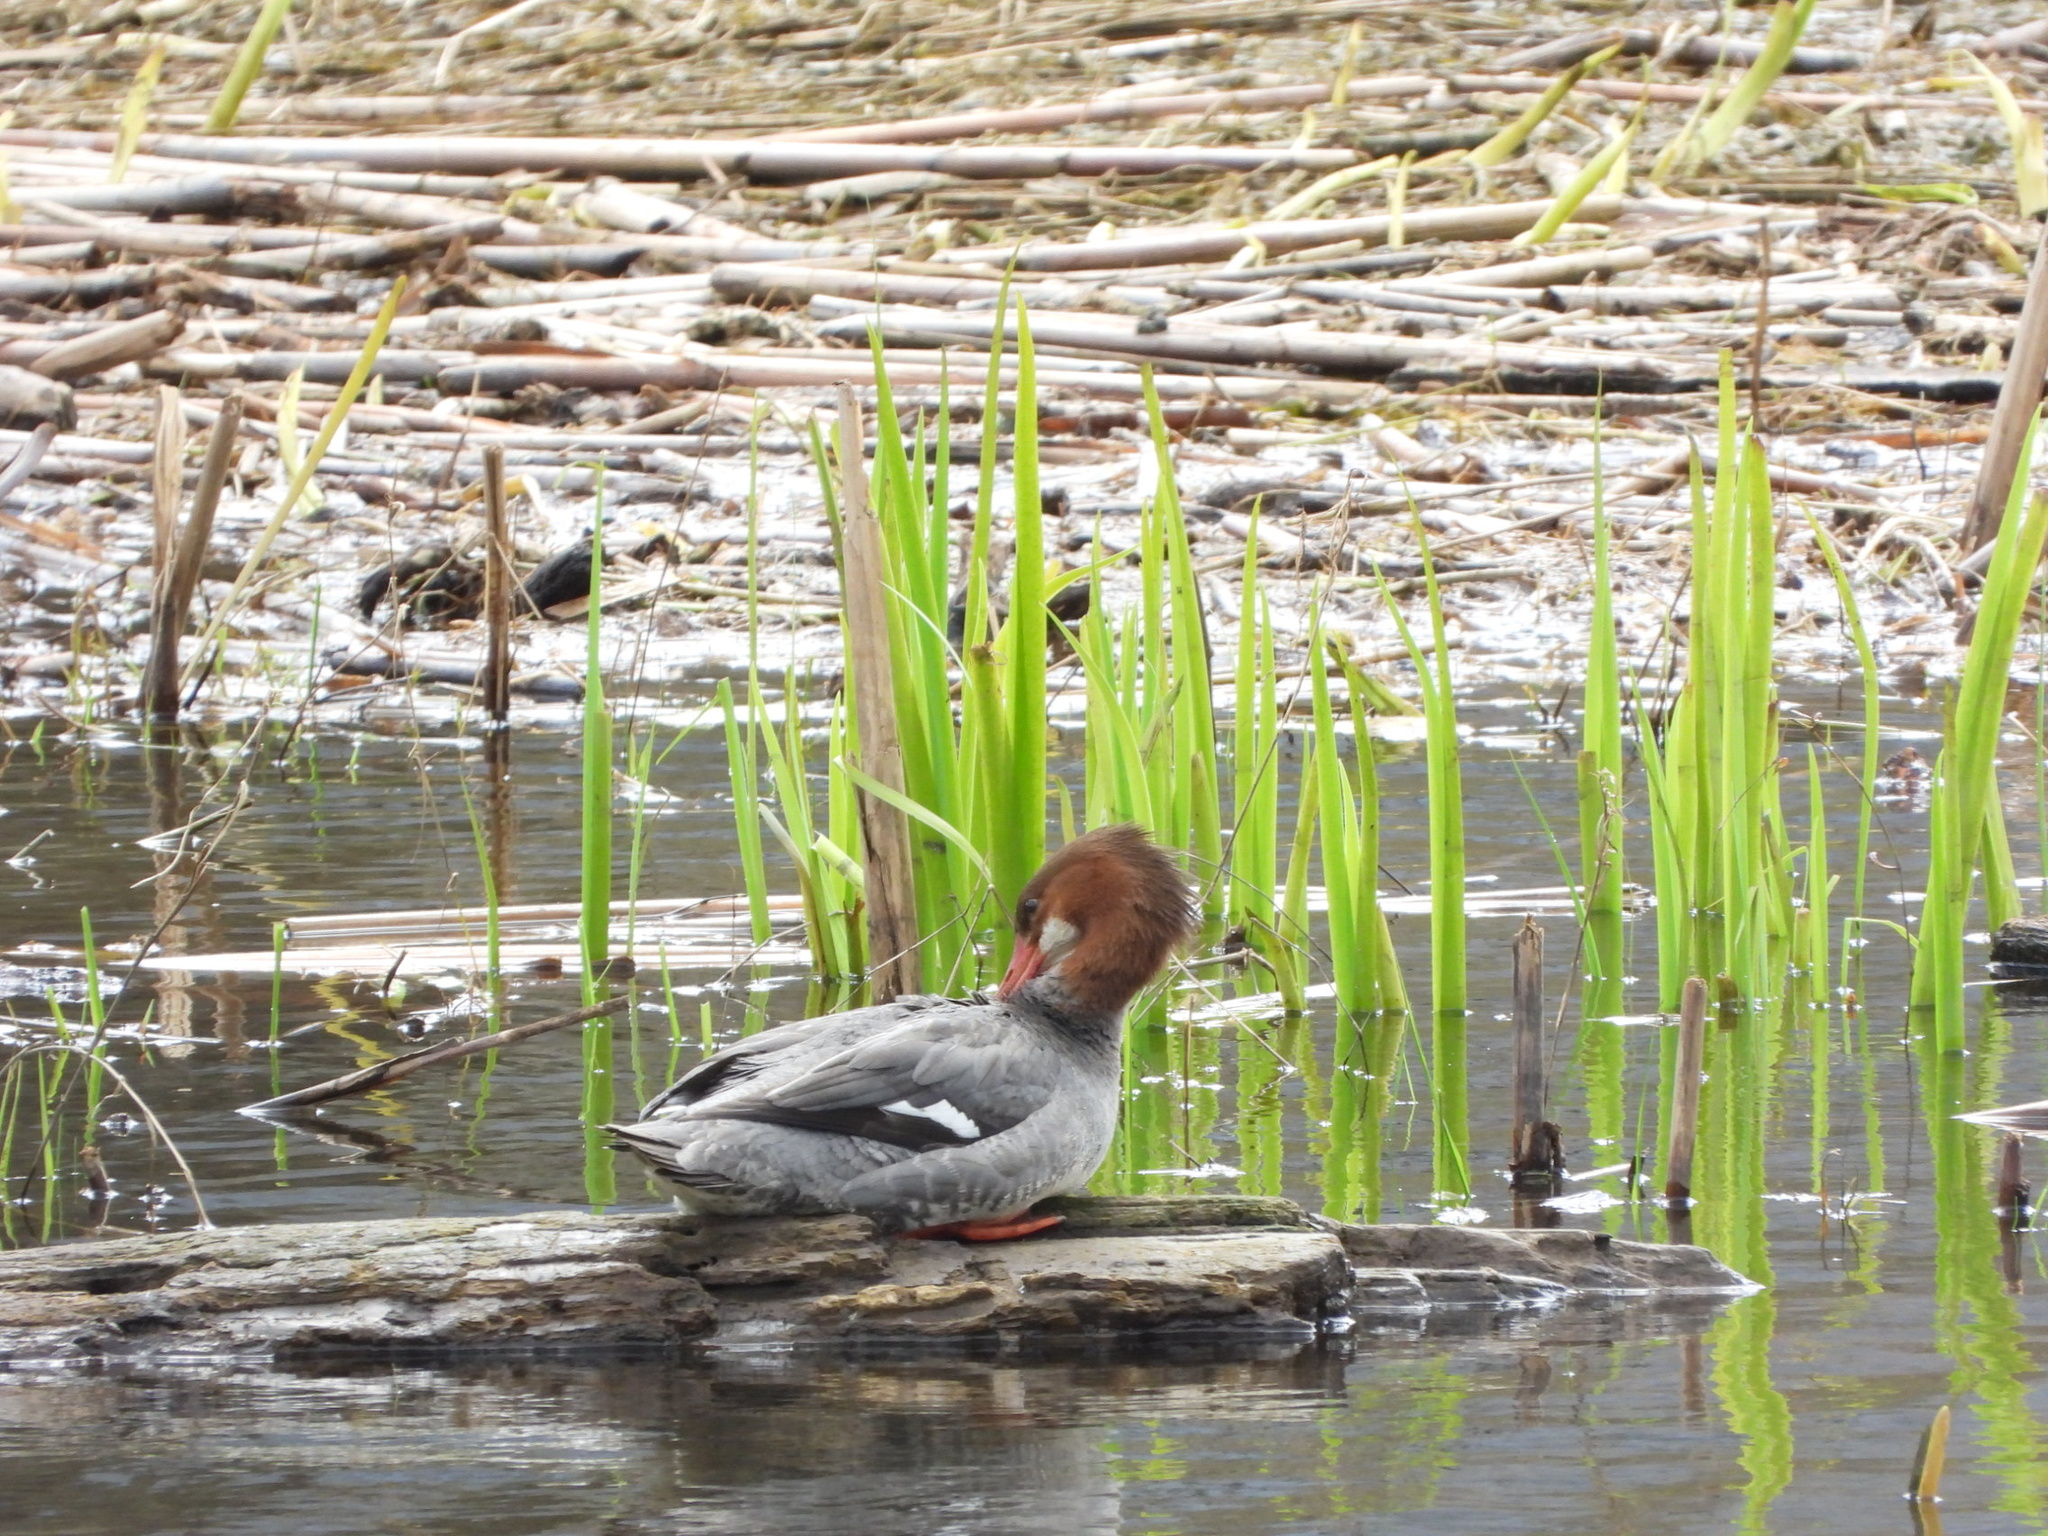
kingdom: Animalia
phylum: Chordata
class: Aves
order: Anseriformes
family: Anatidae
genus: Mergus
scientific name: Mergus merganser
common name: Common merganser
